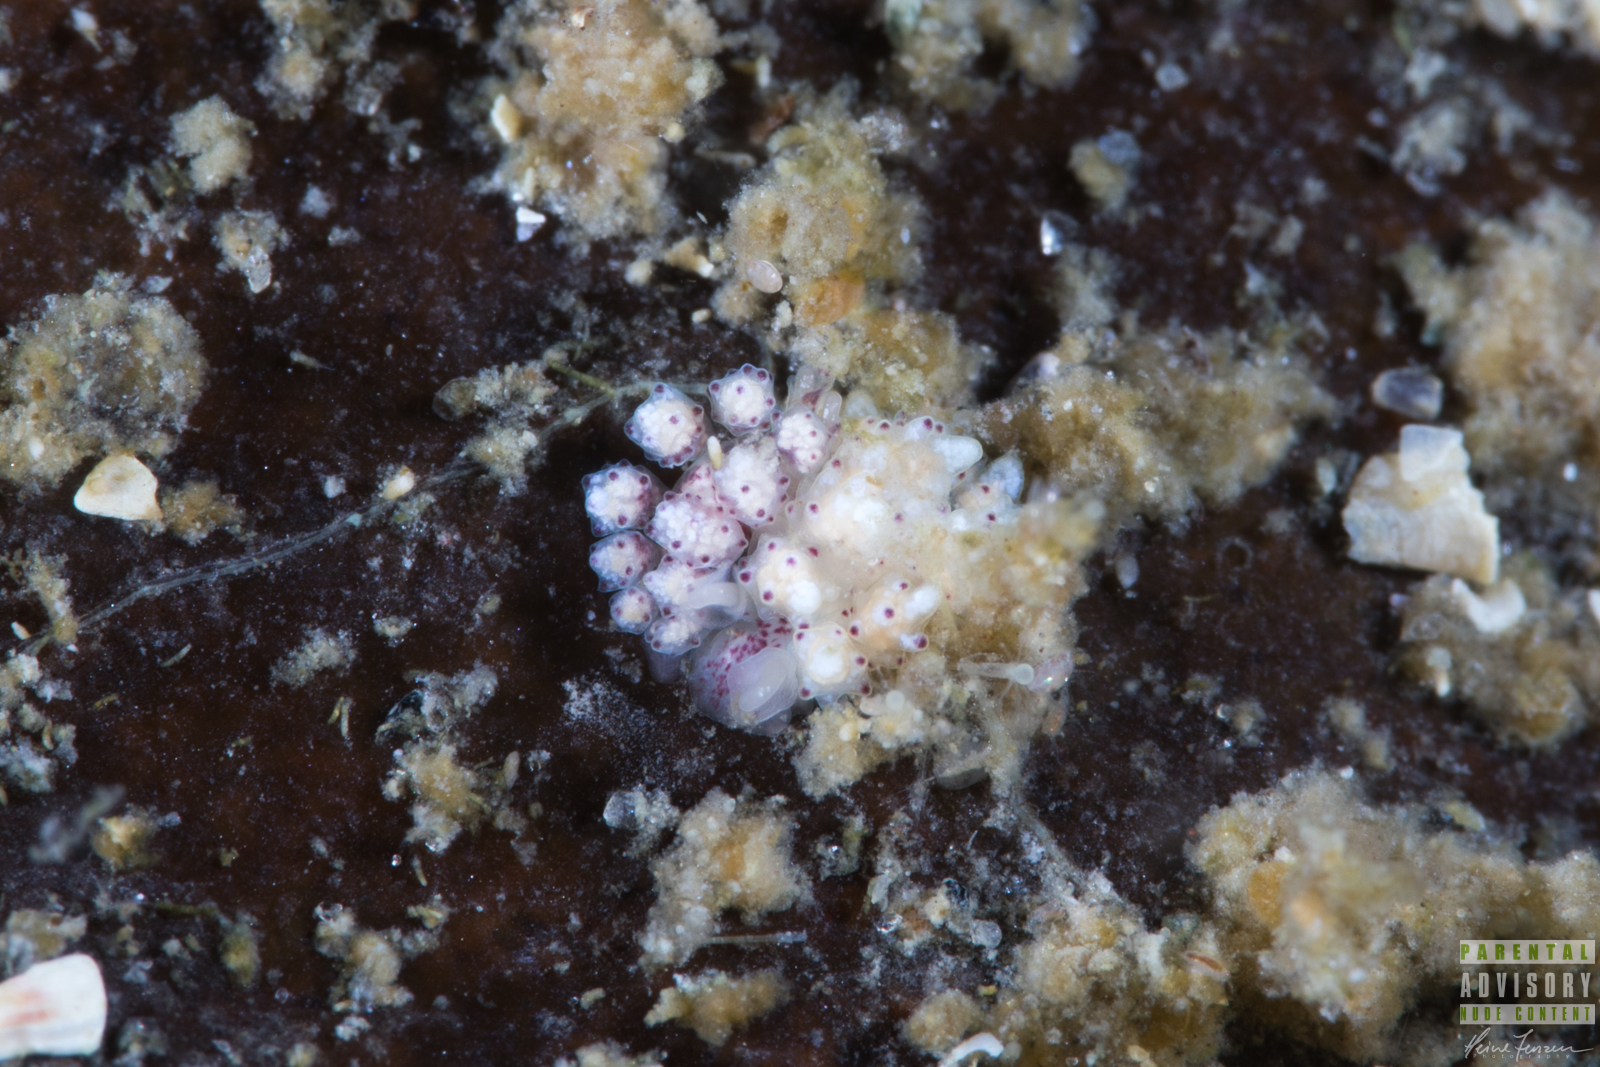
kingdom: Animalia
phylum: Mollusca
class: Gastropoda
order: Nudibranchia
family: Dotidae
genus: Doto
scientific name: Doto coronata
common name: Coronate doto
